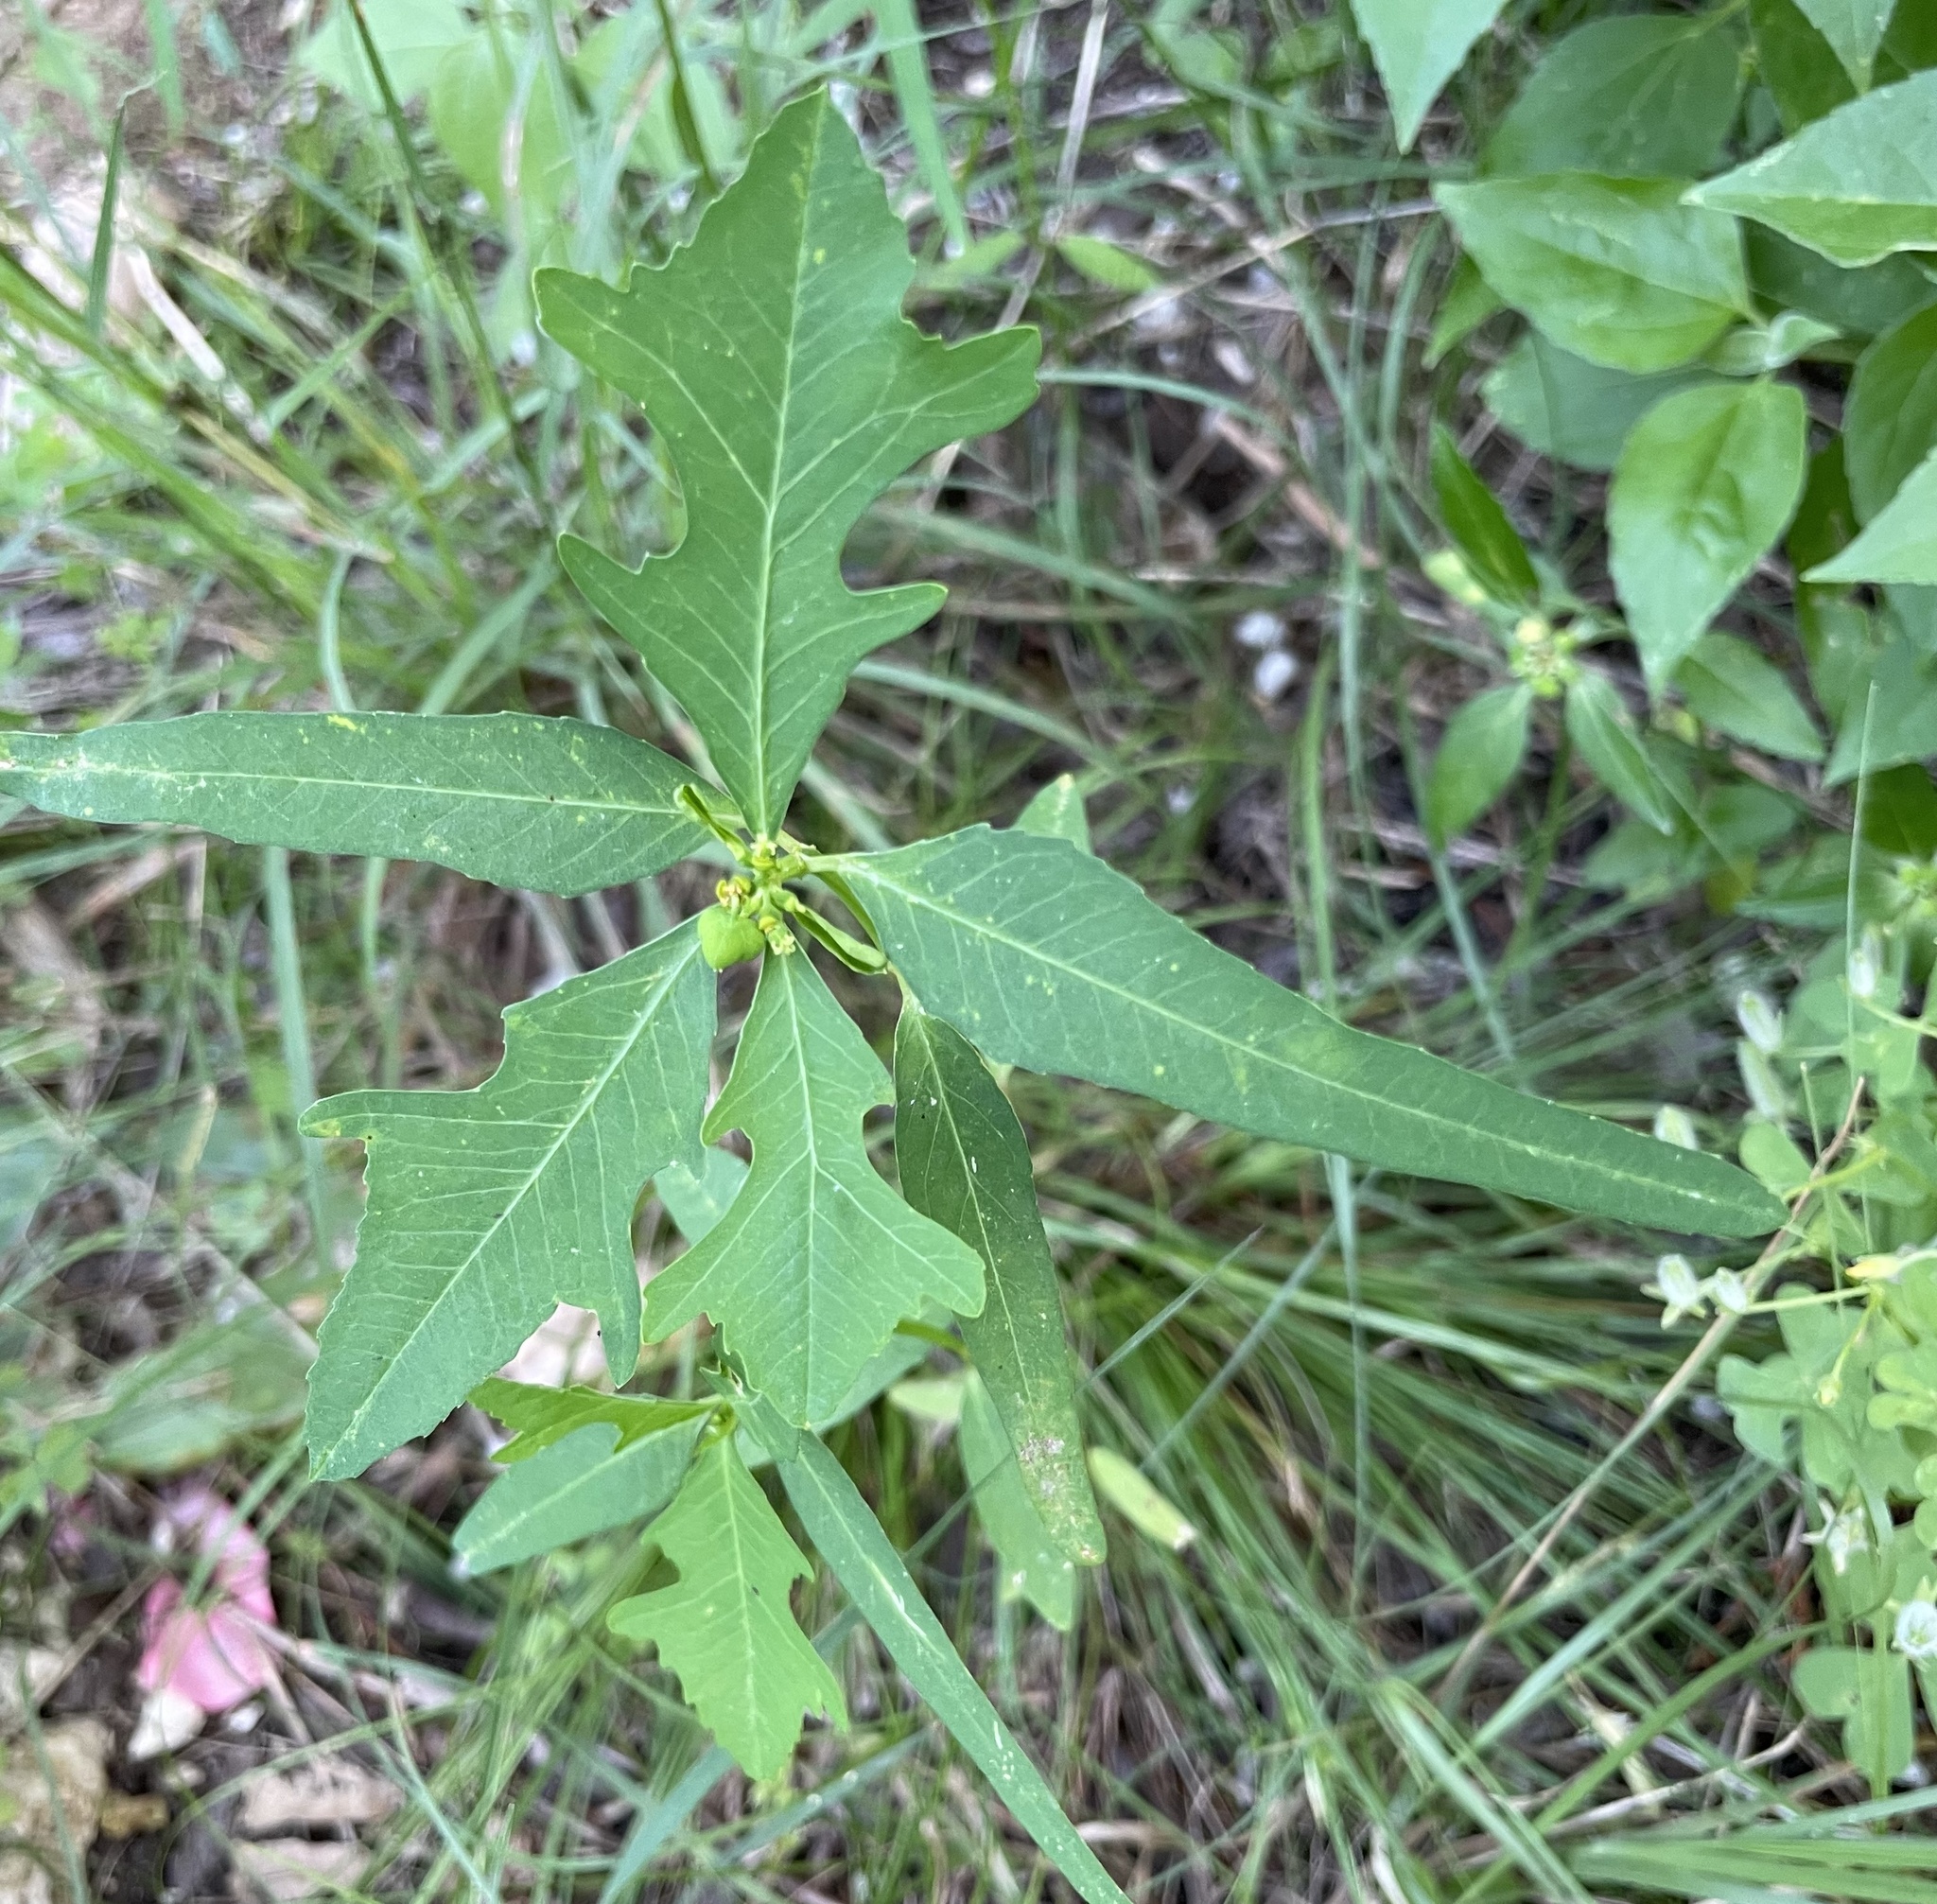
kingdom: Plantae
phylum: Tracheophyta
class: Magnoliopsida
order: Malpighiales
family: Euphorbiaceae
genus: Euphorbia
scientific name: Euphorbia heterophylla
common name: Mexican fireplant
